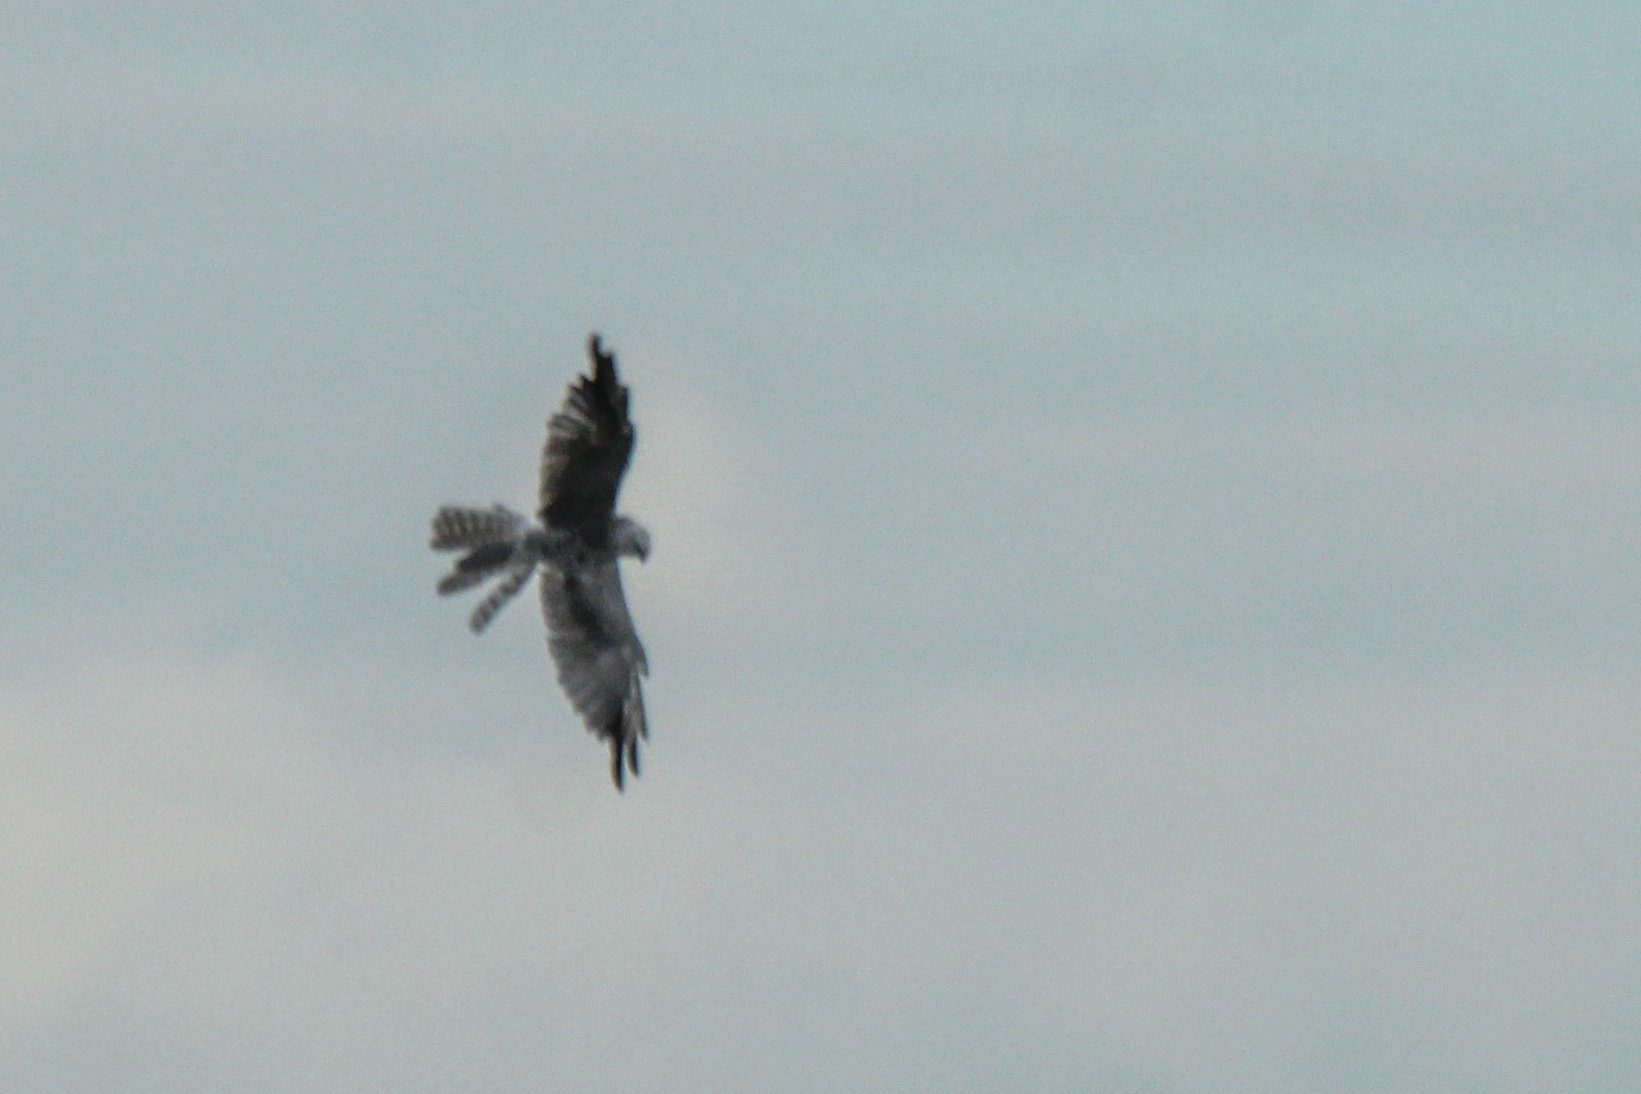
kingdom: Animalia
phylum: Chordata
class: Aves
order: Accipitriformes
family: Accipitridae
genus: Circus
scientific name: Circus macrourus
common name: Pallid harrier
